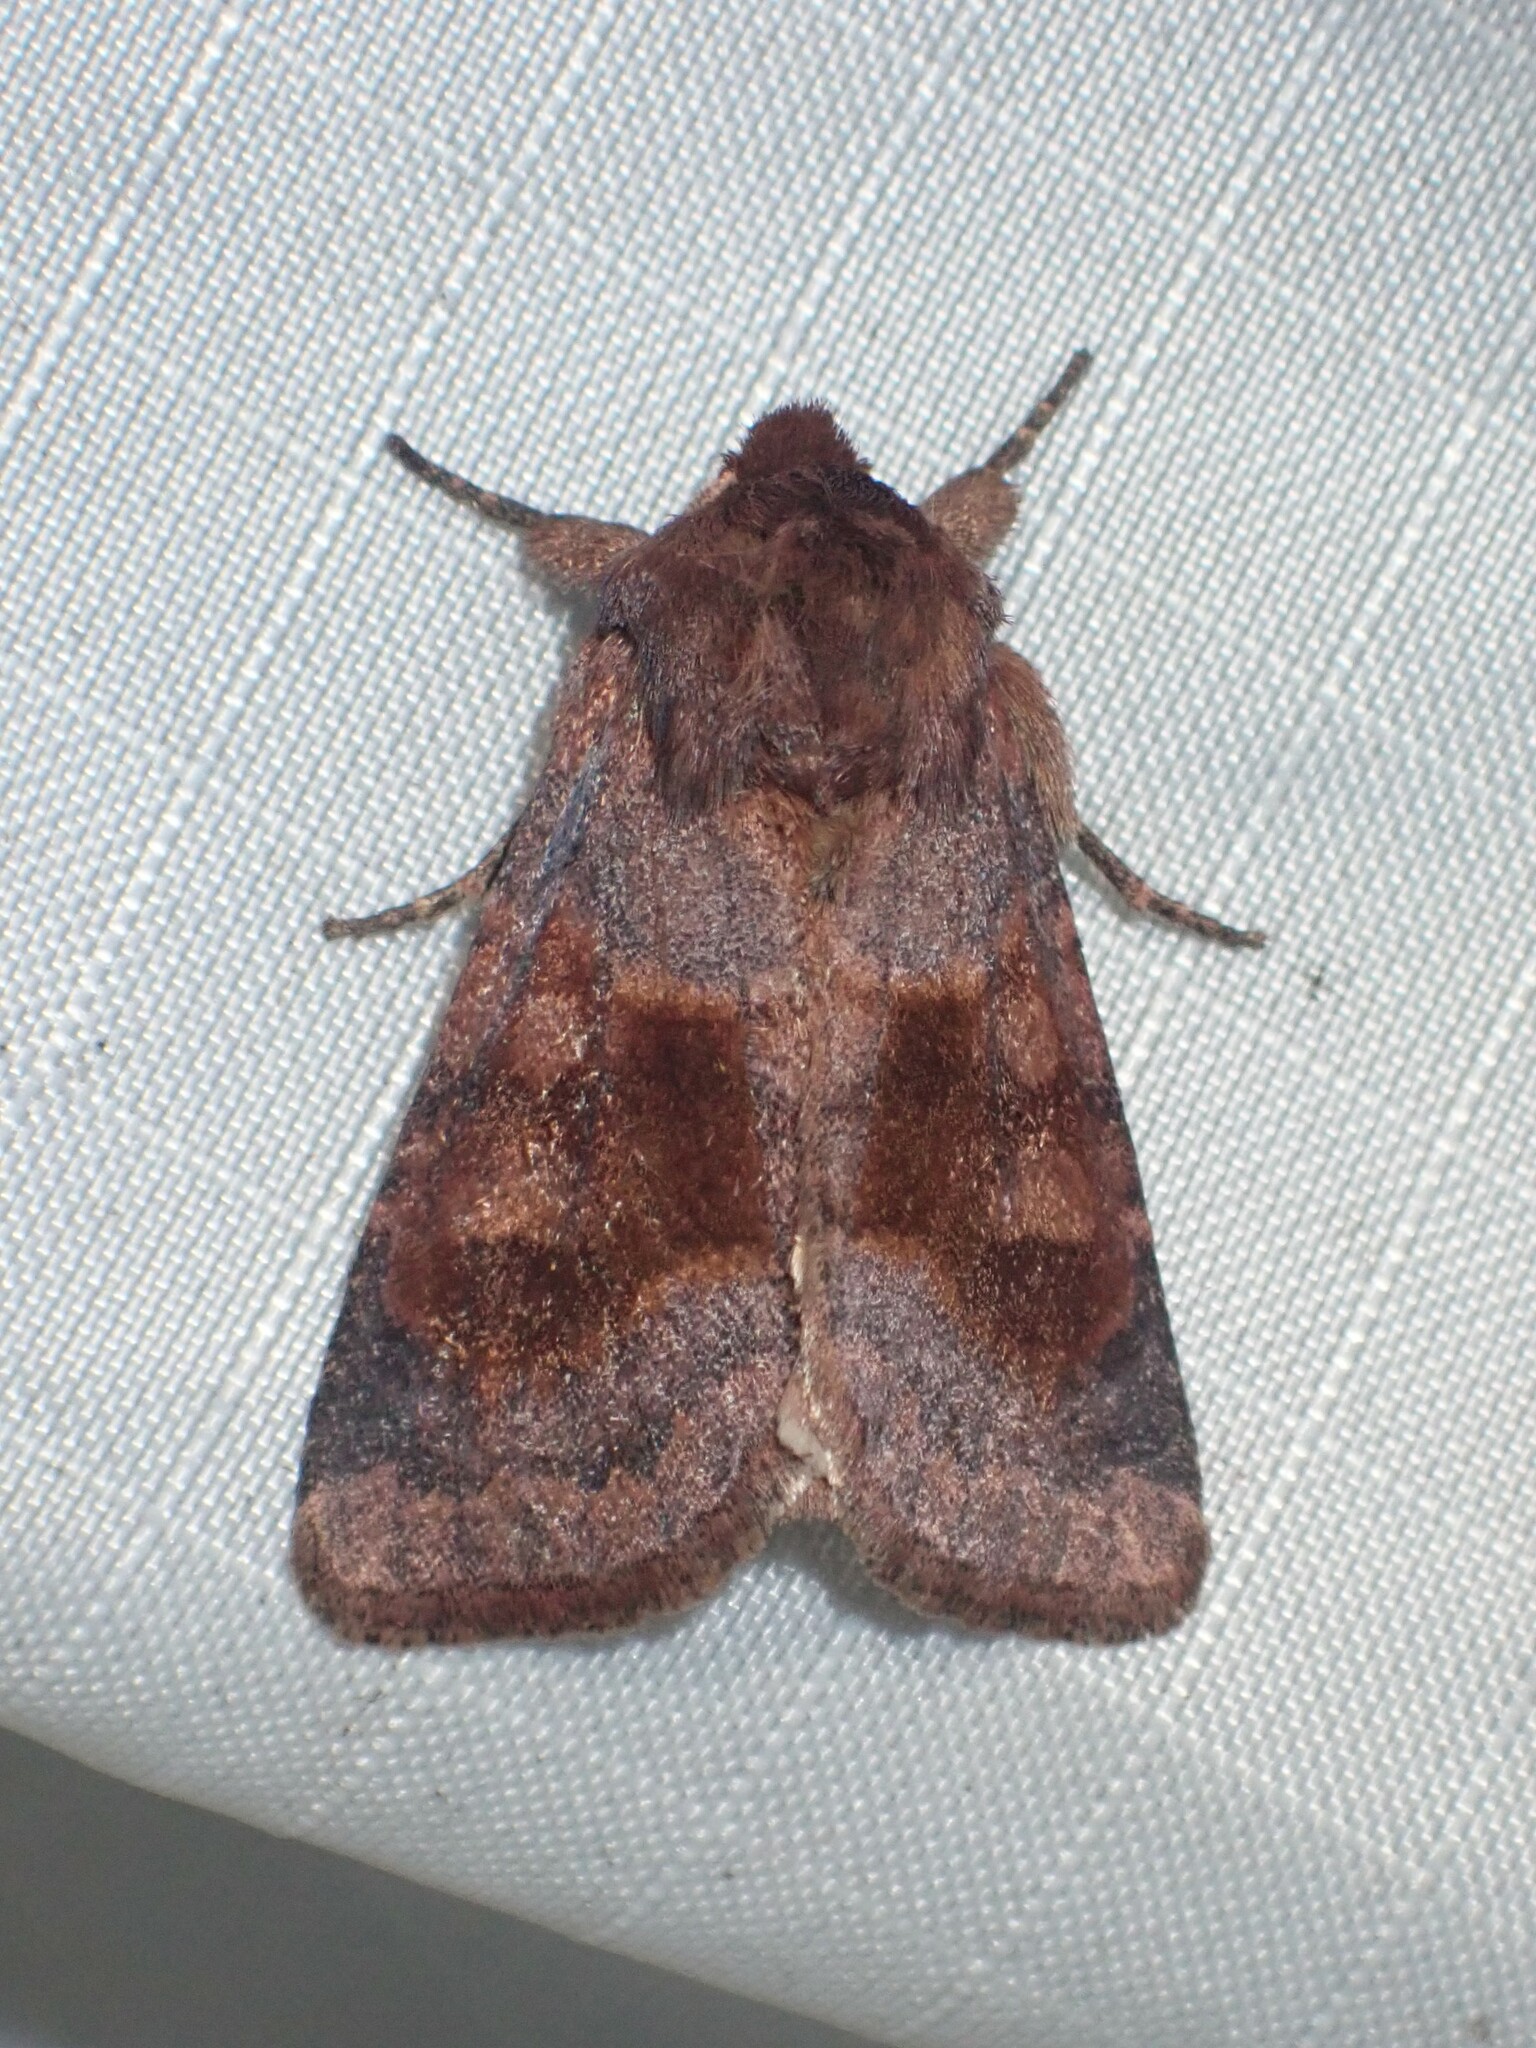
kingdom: Animalia
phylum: Arthropoda
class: Insecta
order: Lepidoptera
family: Noctuidae
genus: Nephelodes
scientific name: Nephelodes minians
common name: Bronzed cutworm
